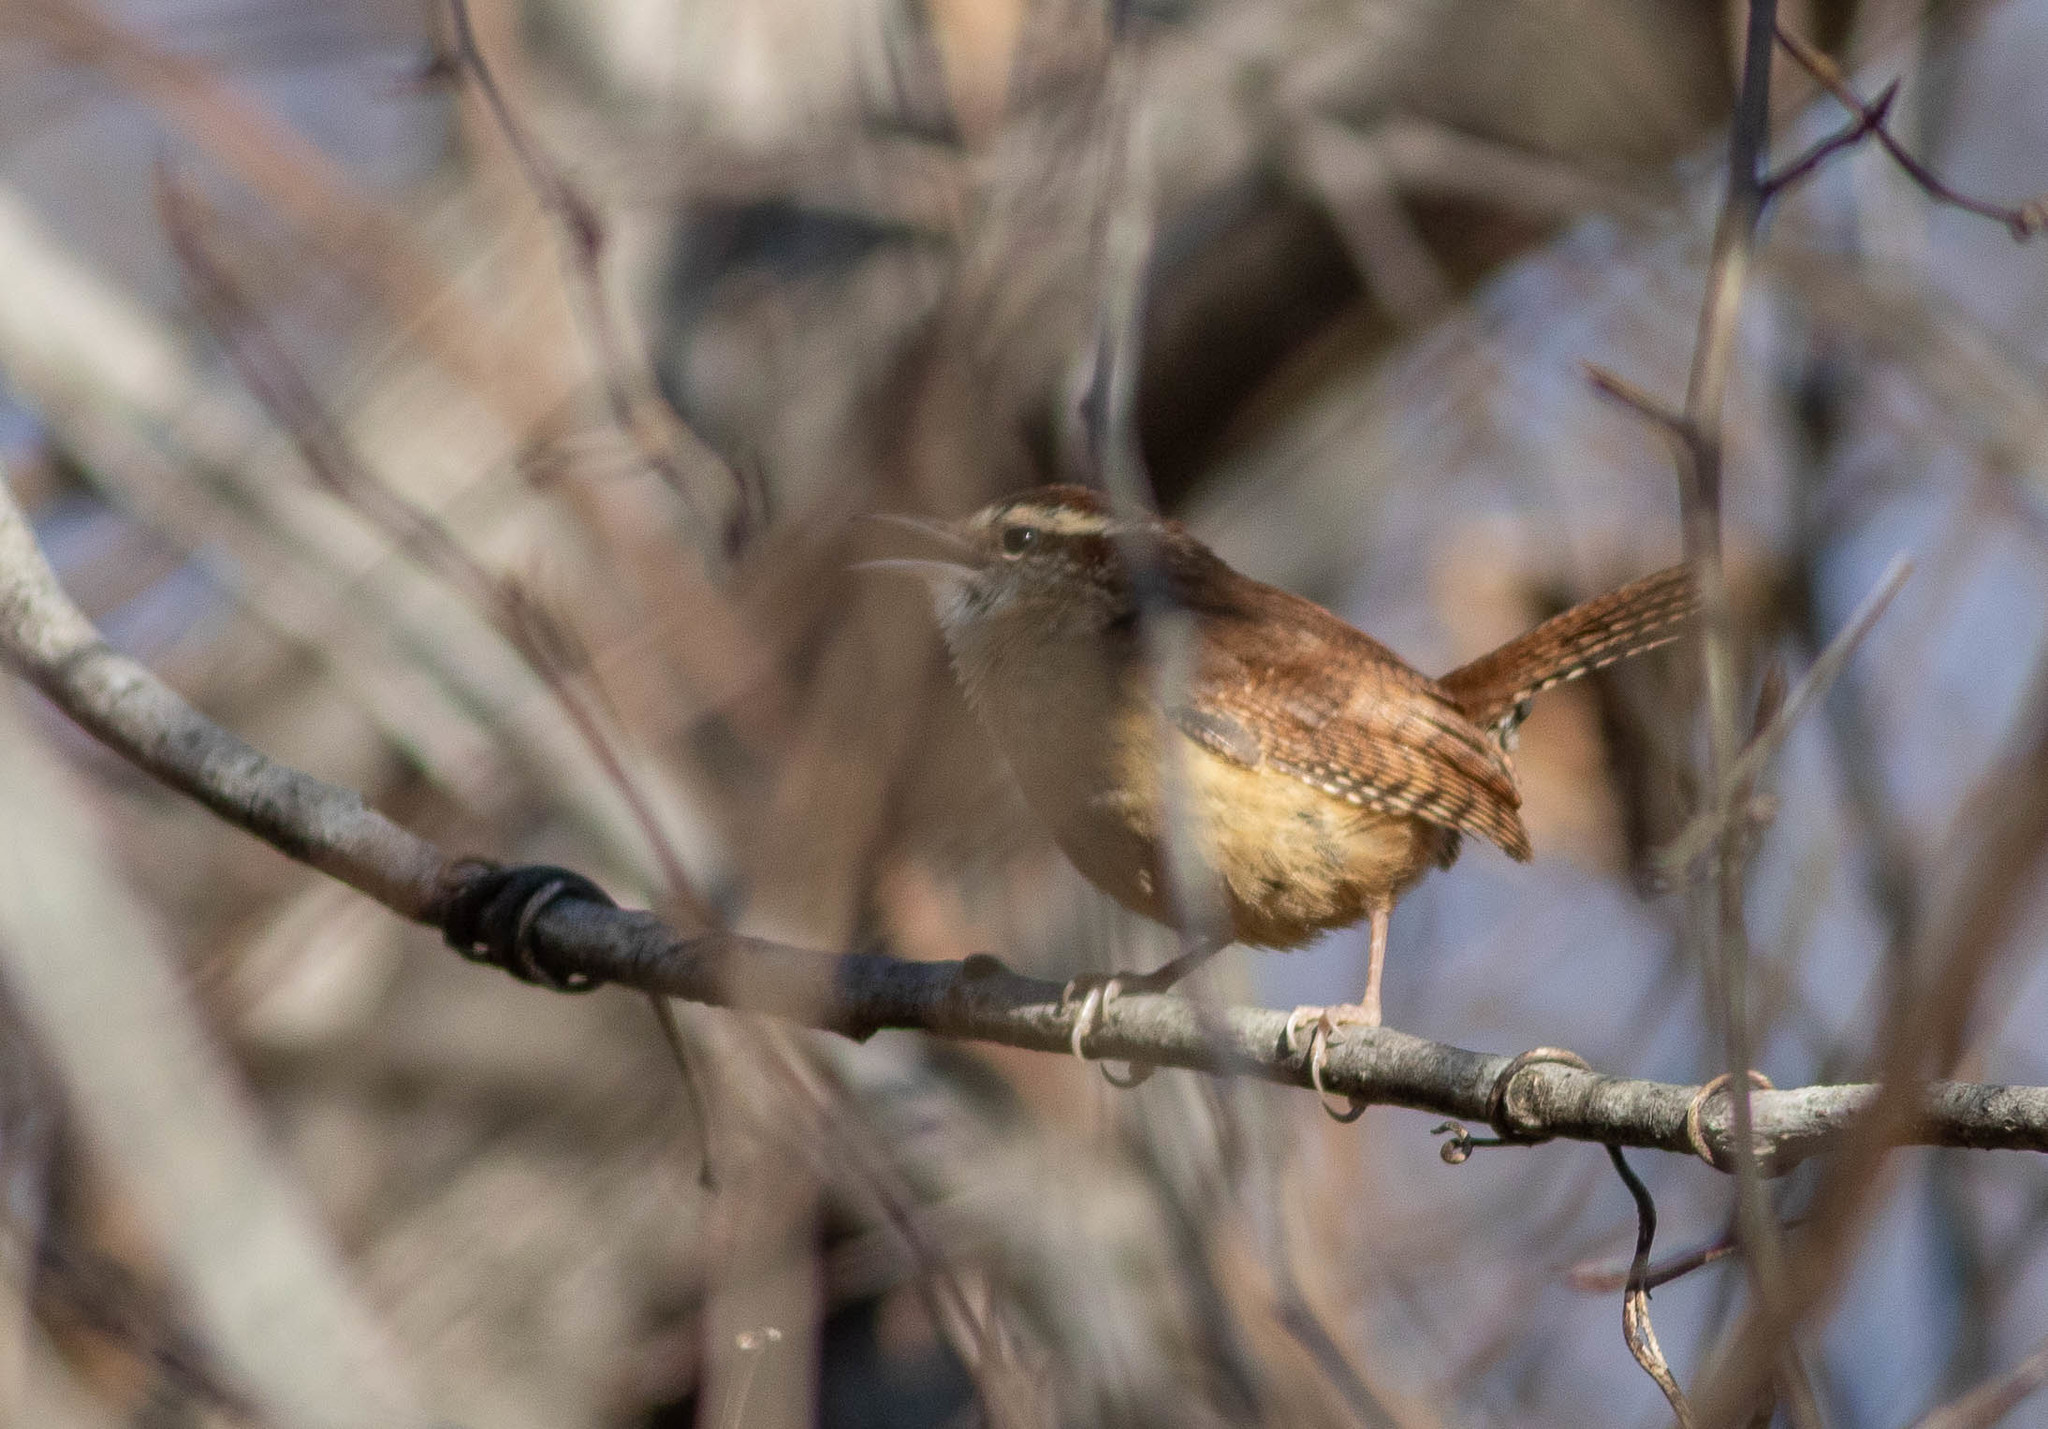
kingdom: Animalia
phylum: Chordata
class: Aves
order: Passeriformes
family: Troglodytidae
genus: Thryothorus
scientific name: Thryothorus ludovicianus
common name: Carolina wren
